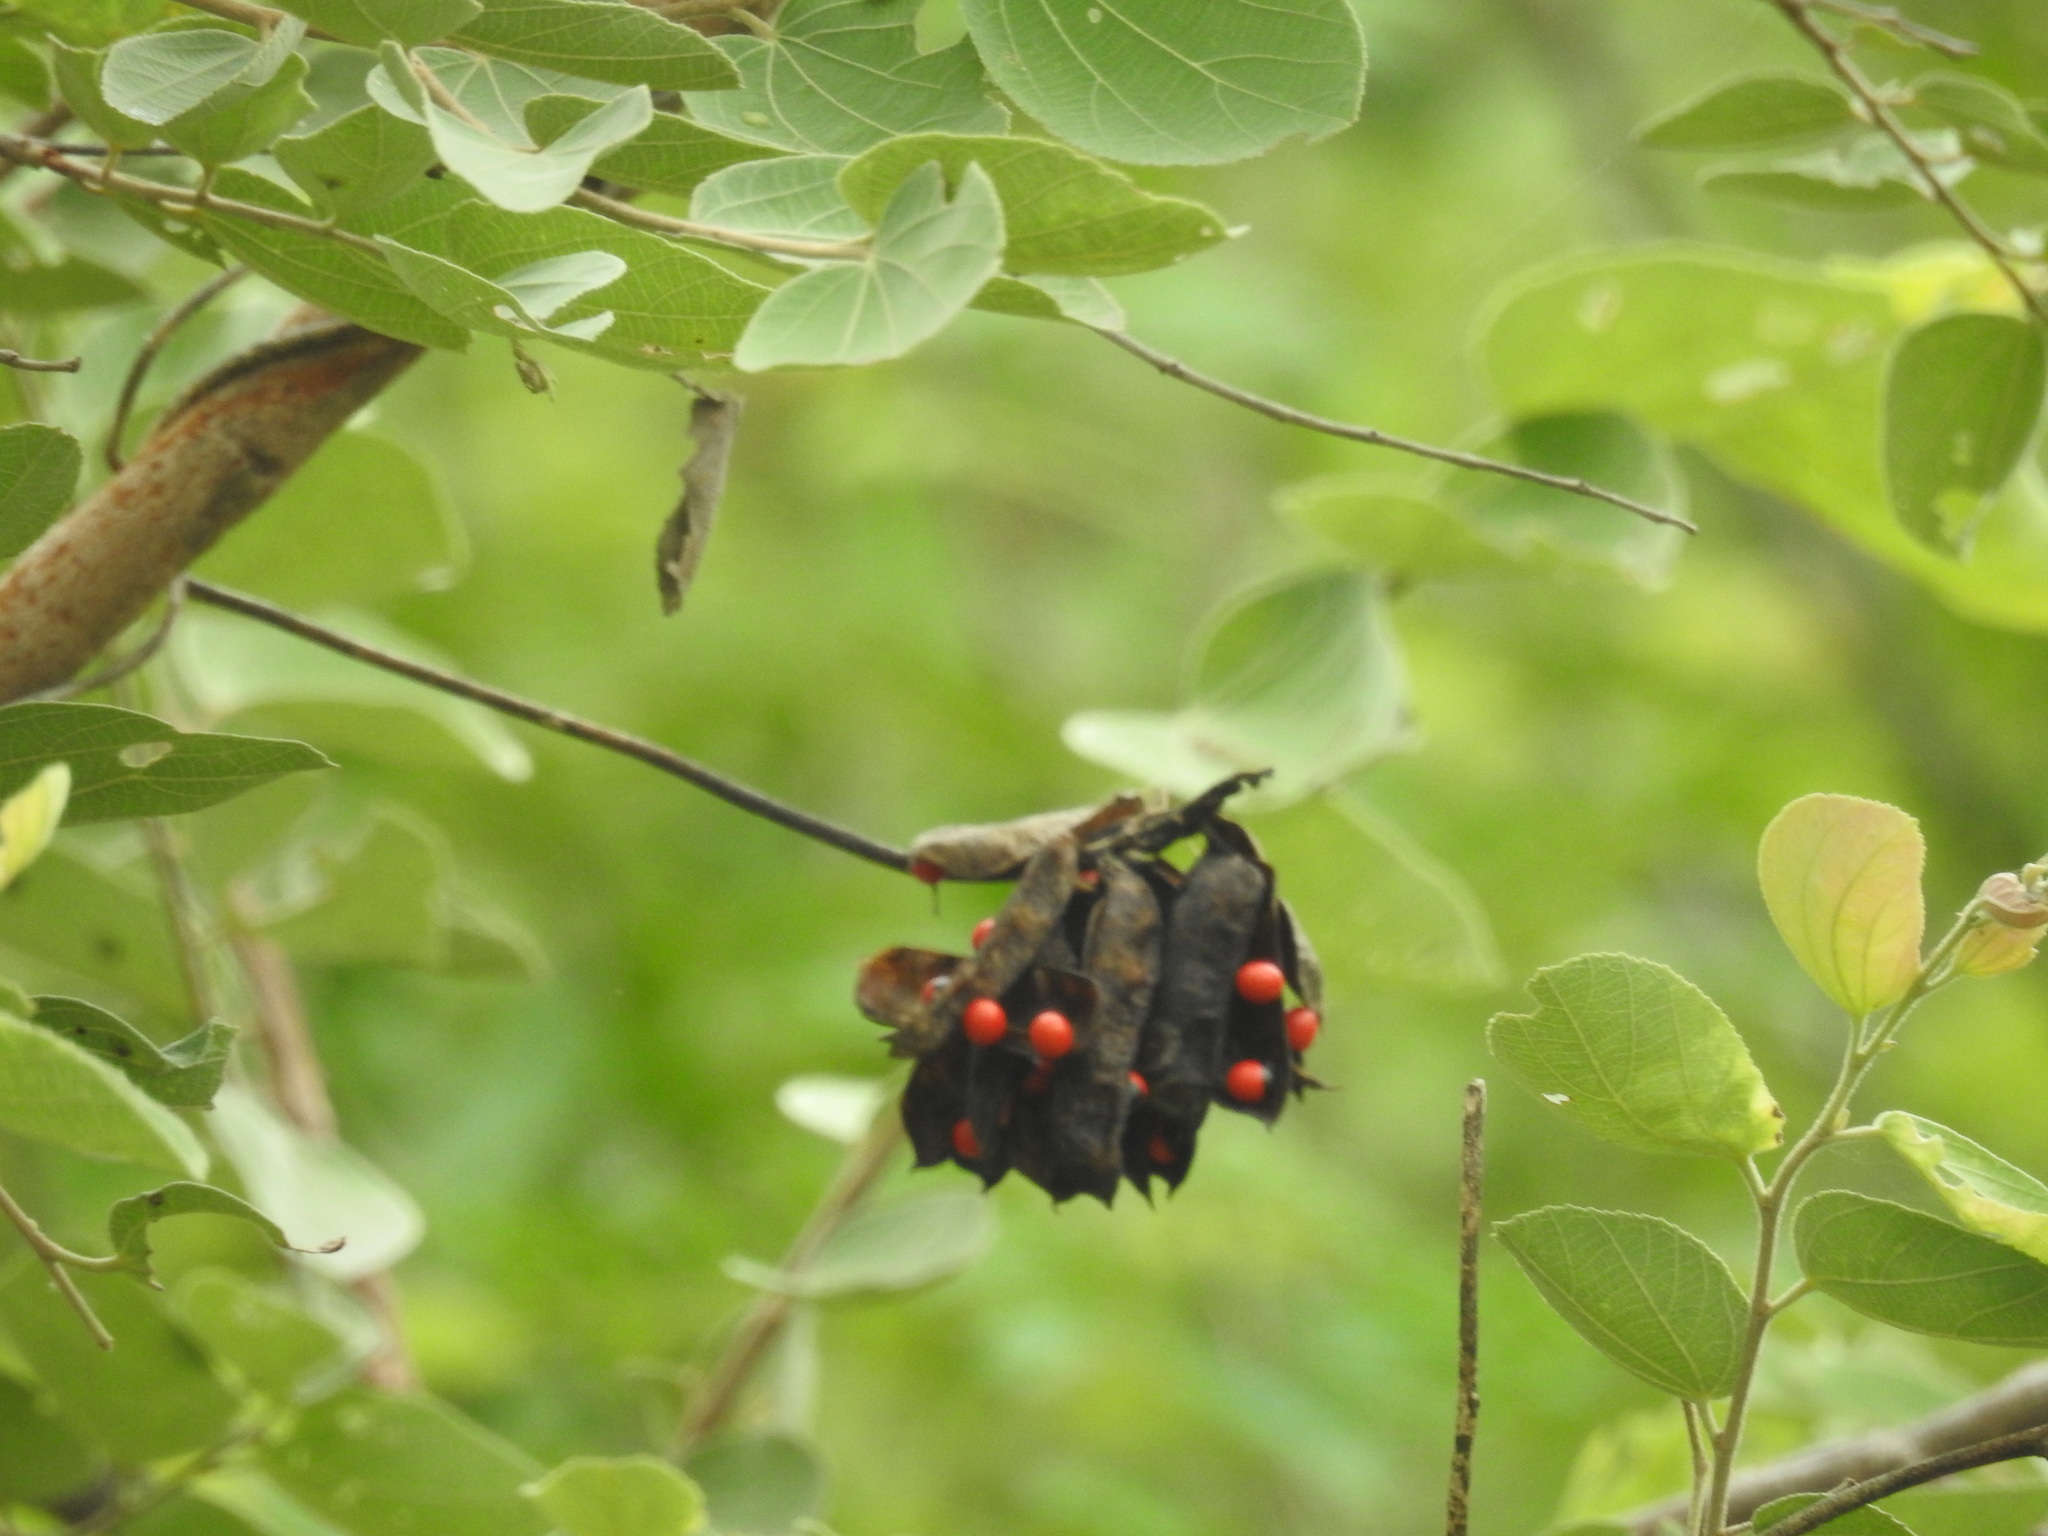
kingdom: Plantae
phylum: Tracheophyta
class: Magnoliopsida
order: Fabales
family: Fabaceae
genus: Abrus
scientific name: Abrus precatorius
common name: Rosarypea
